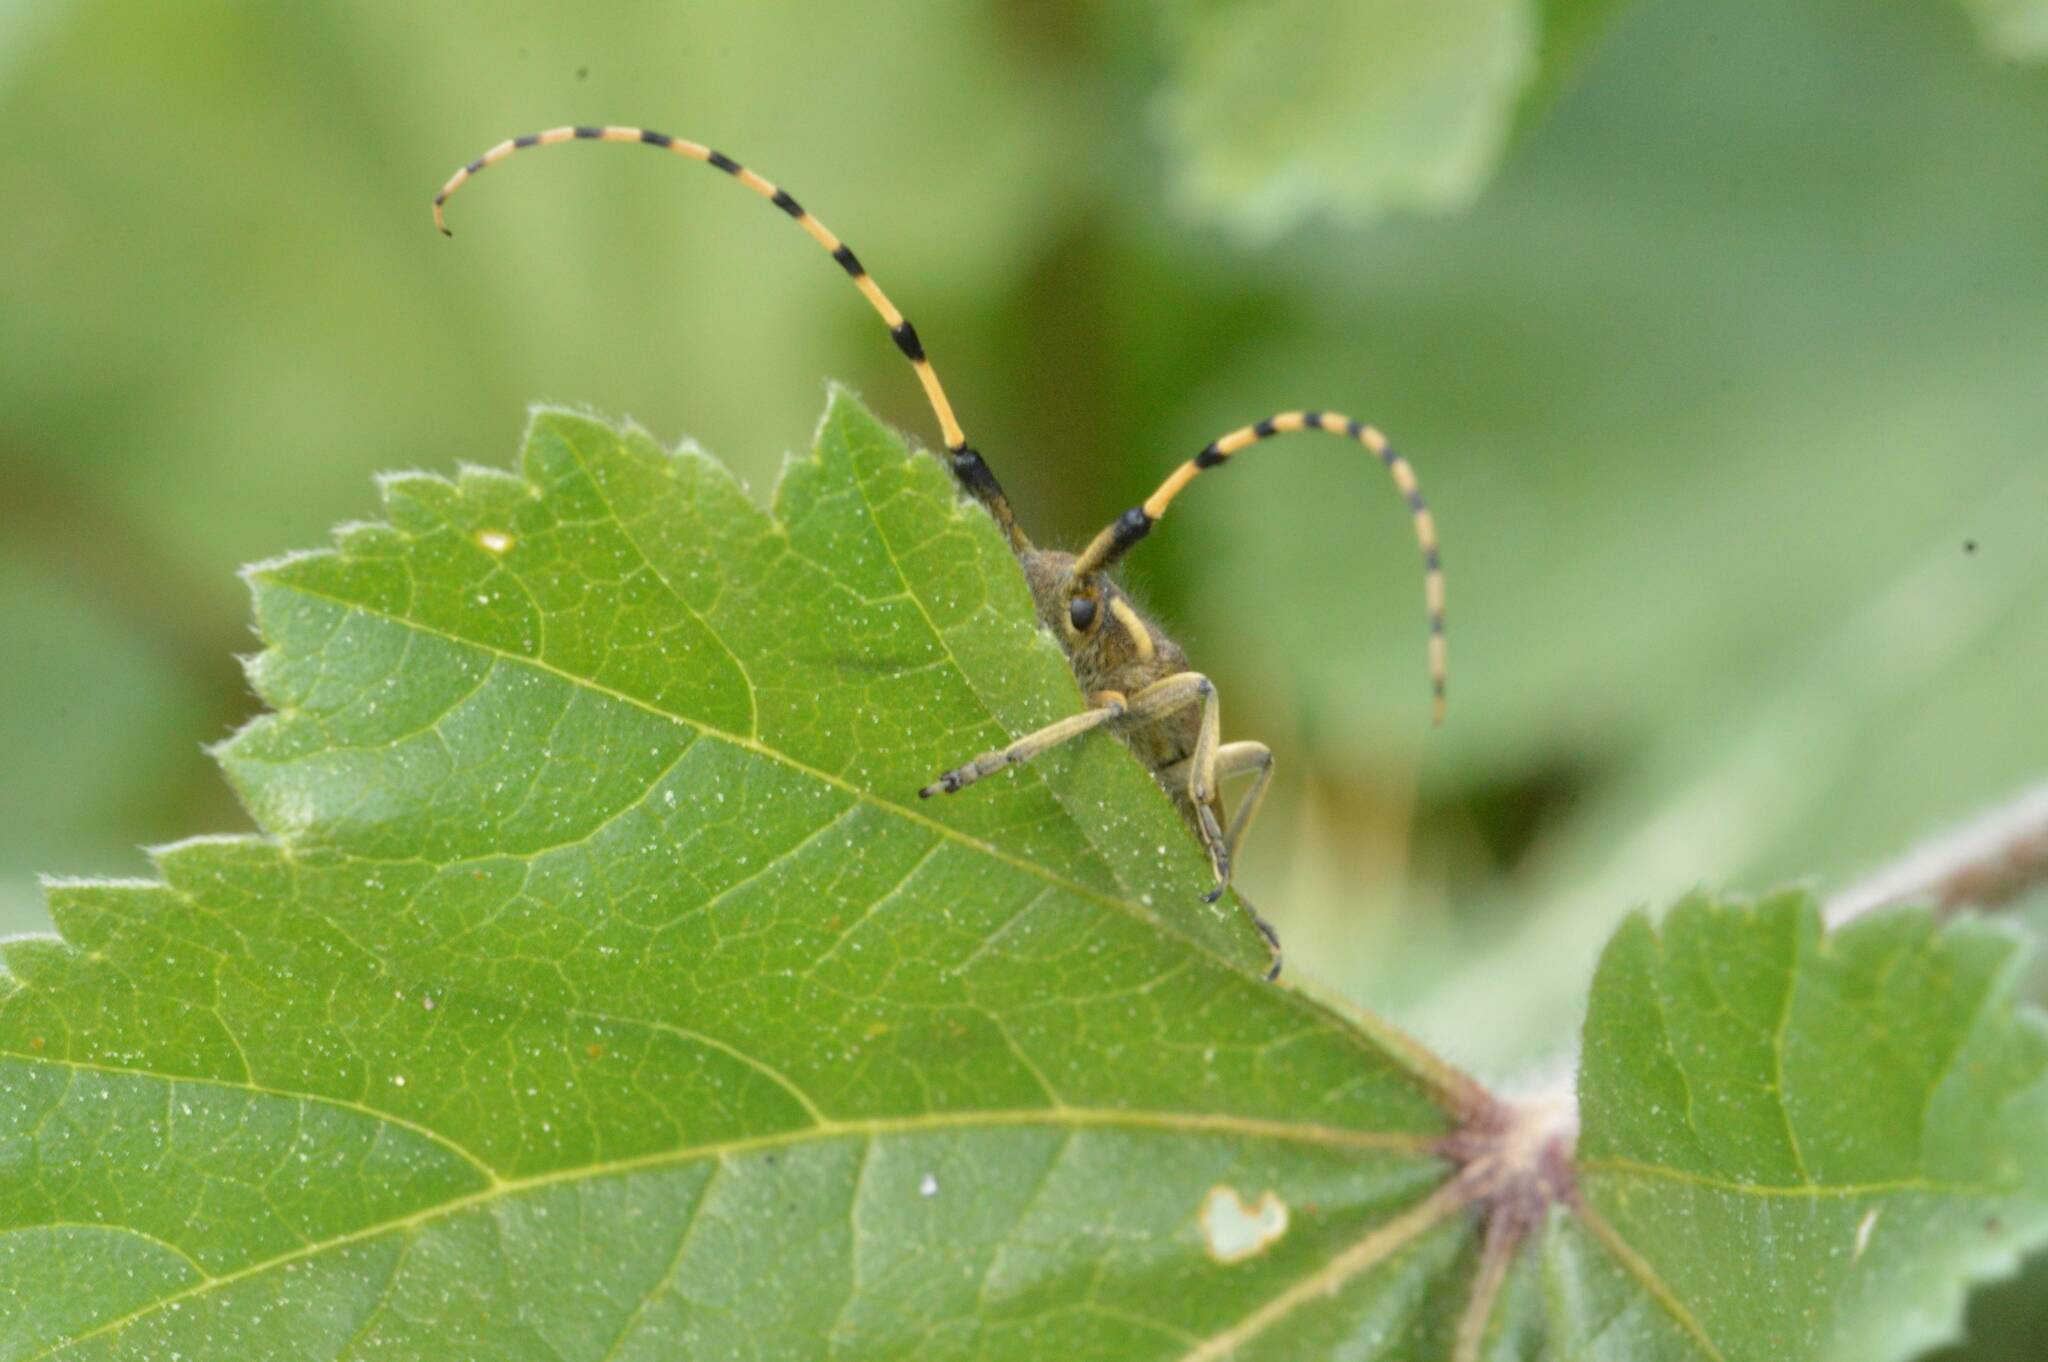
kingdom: Animalia
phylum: Arthropoda
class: Insecta
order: Coleoptera
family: Cerambycidae
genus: Agapanthia
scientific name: Agapanthia annularis
